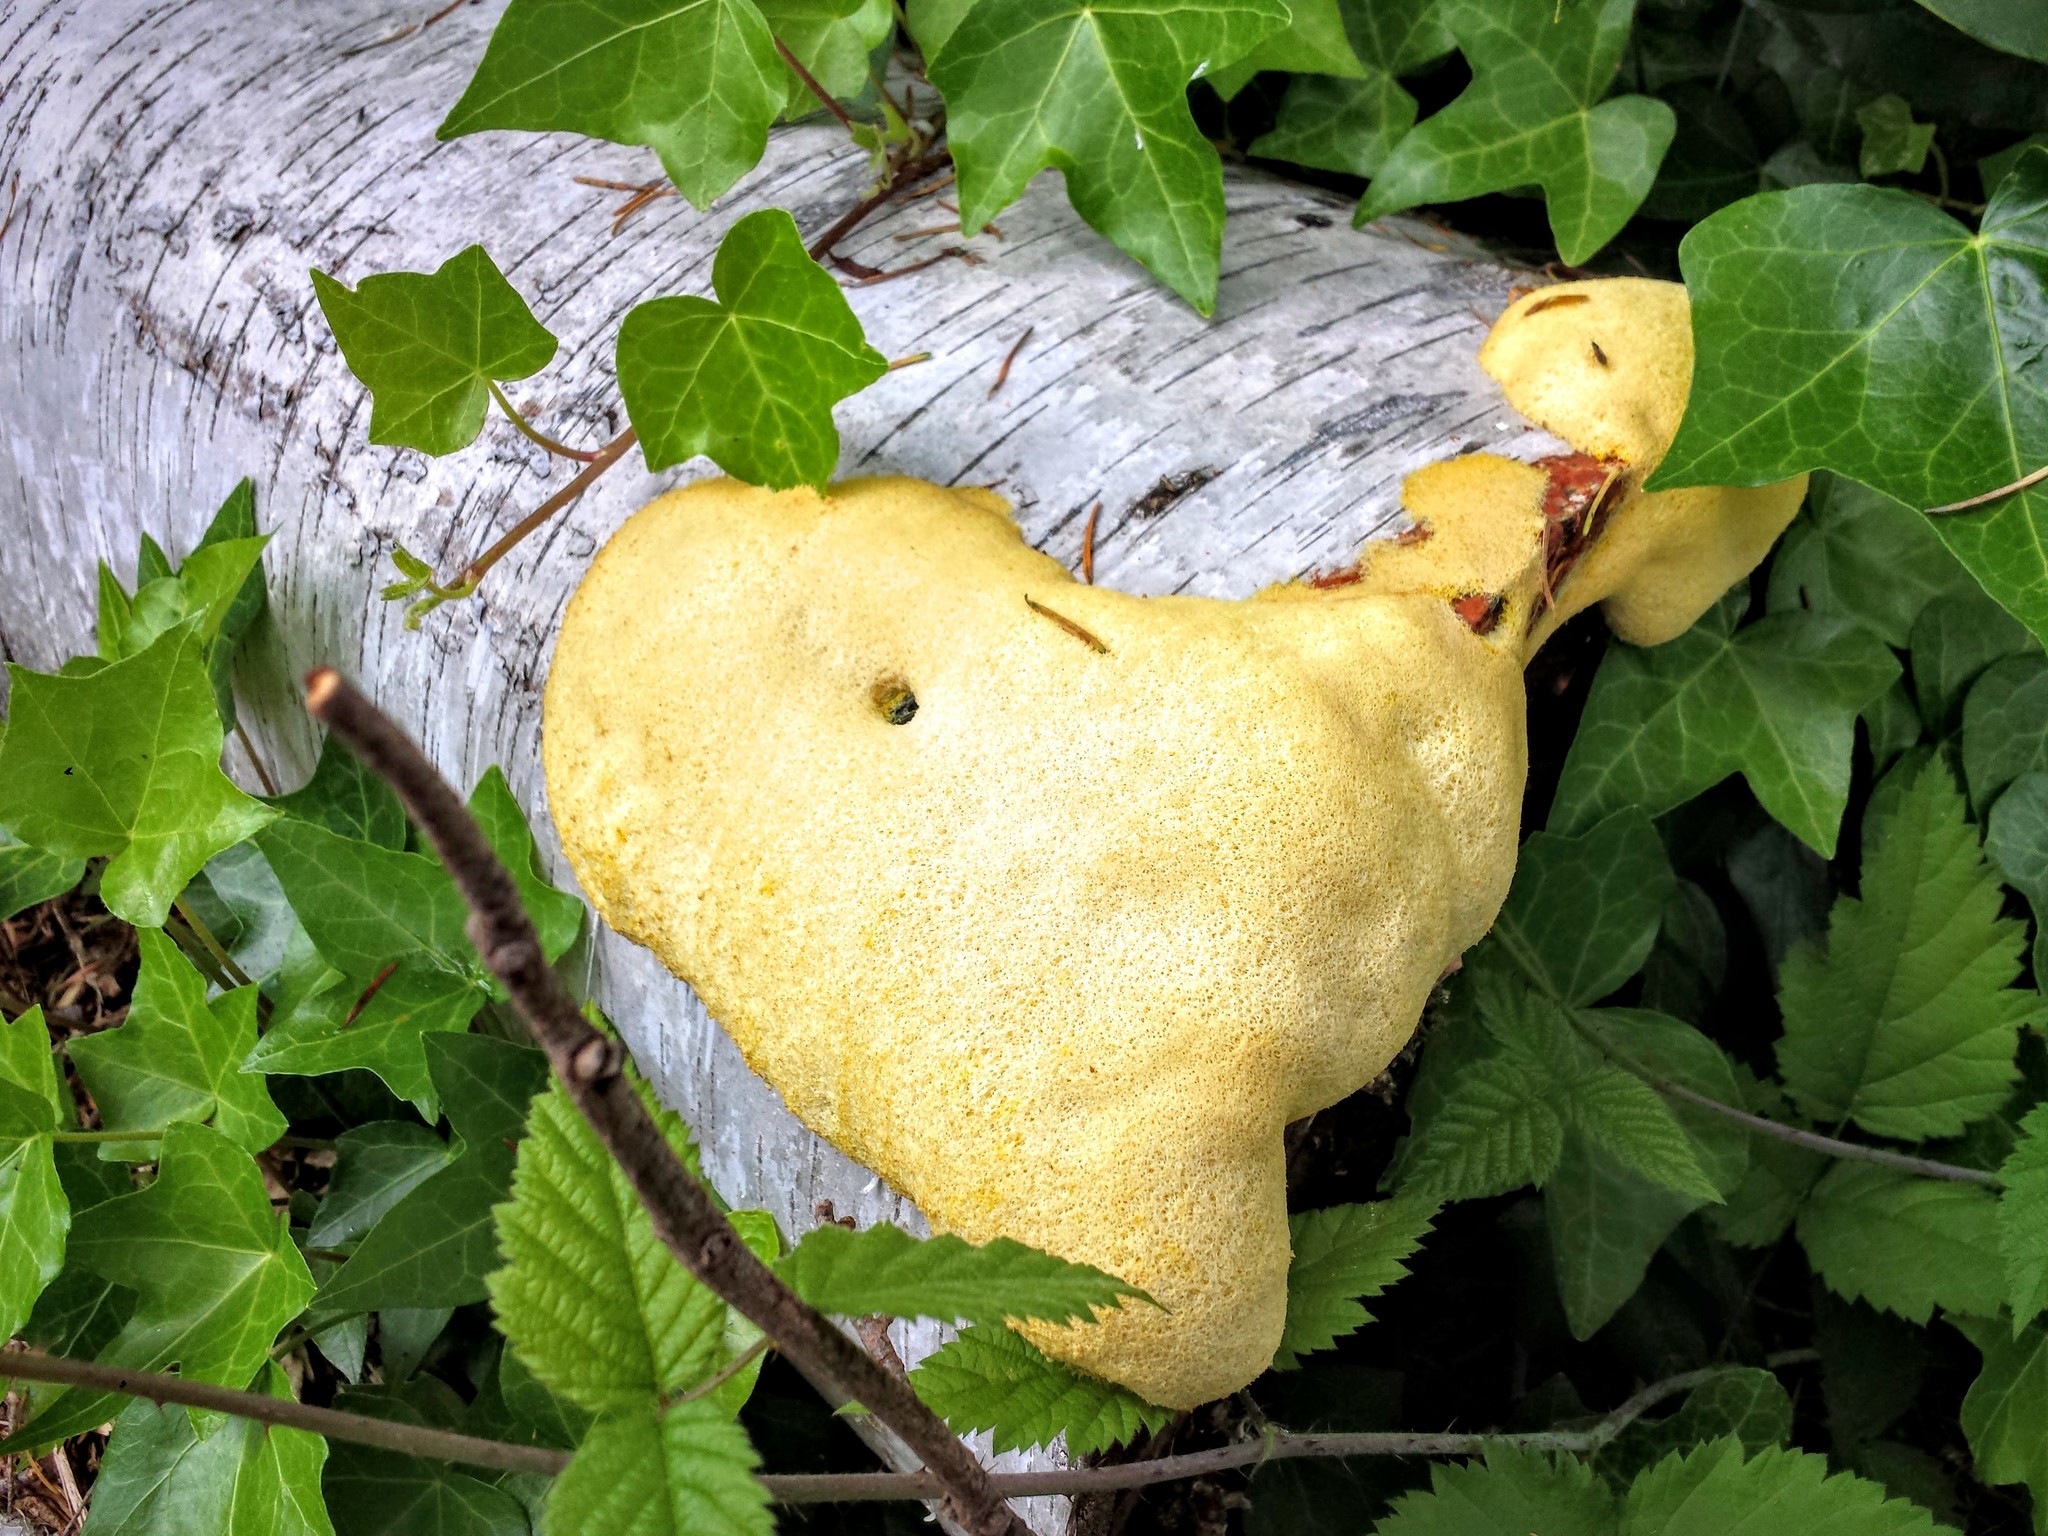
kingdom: Protozoa
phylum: Mycetozoa
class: Myxomycetes
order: Physarales
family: Physaraceae
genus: Fuligo
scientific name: Fuligo septica
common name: Dog vomit slime mold
